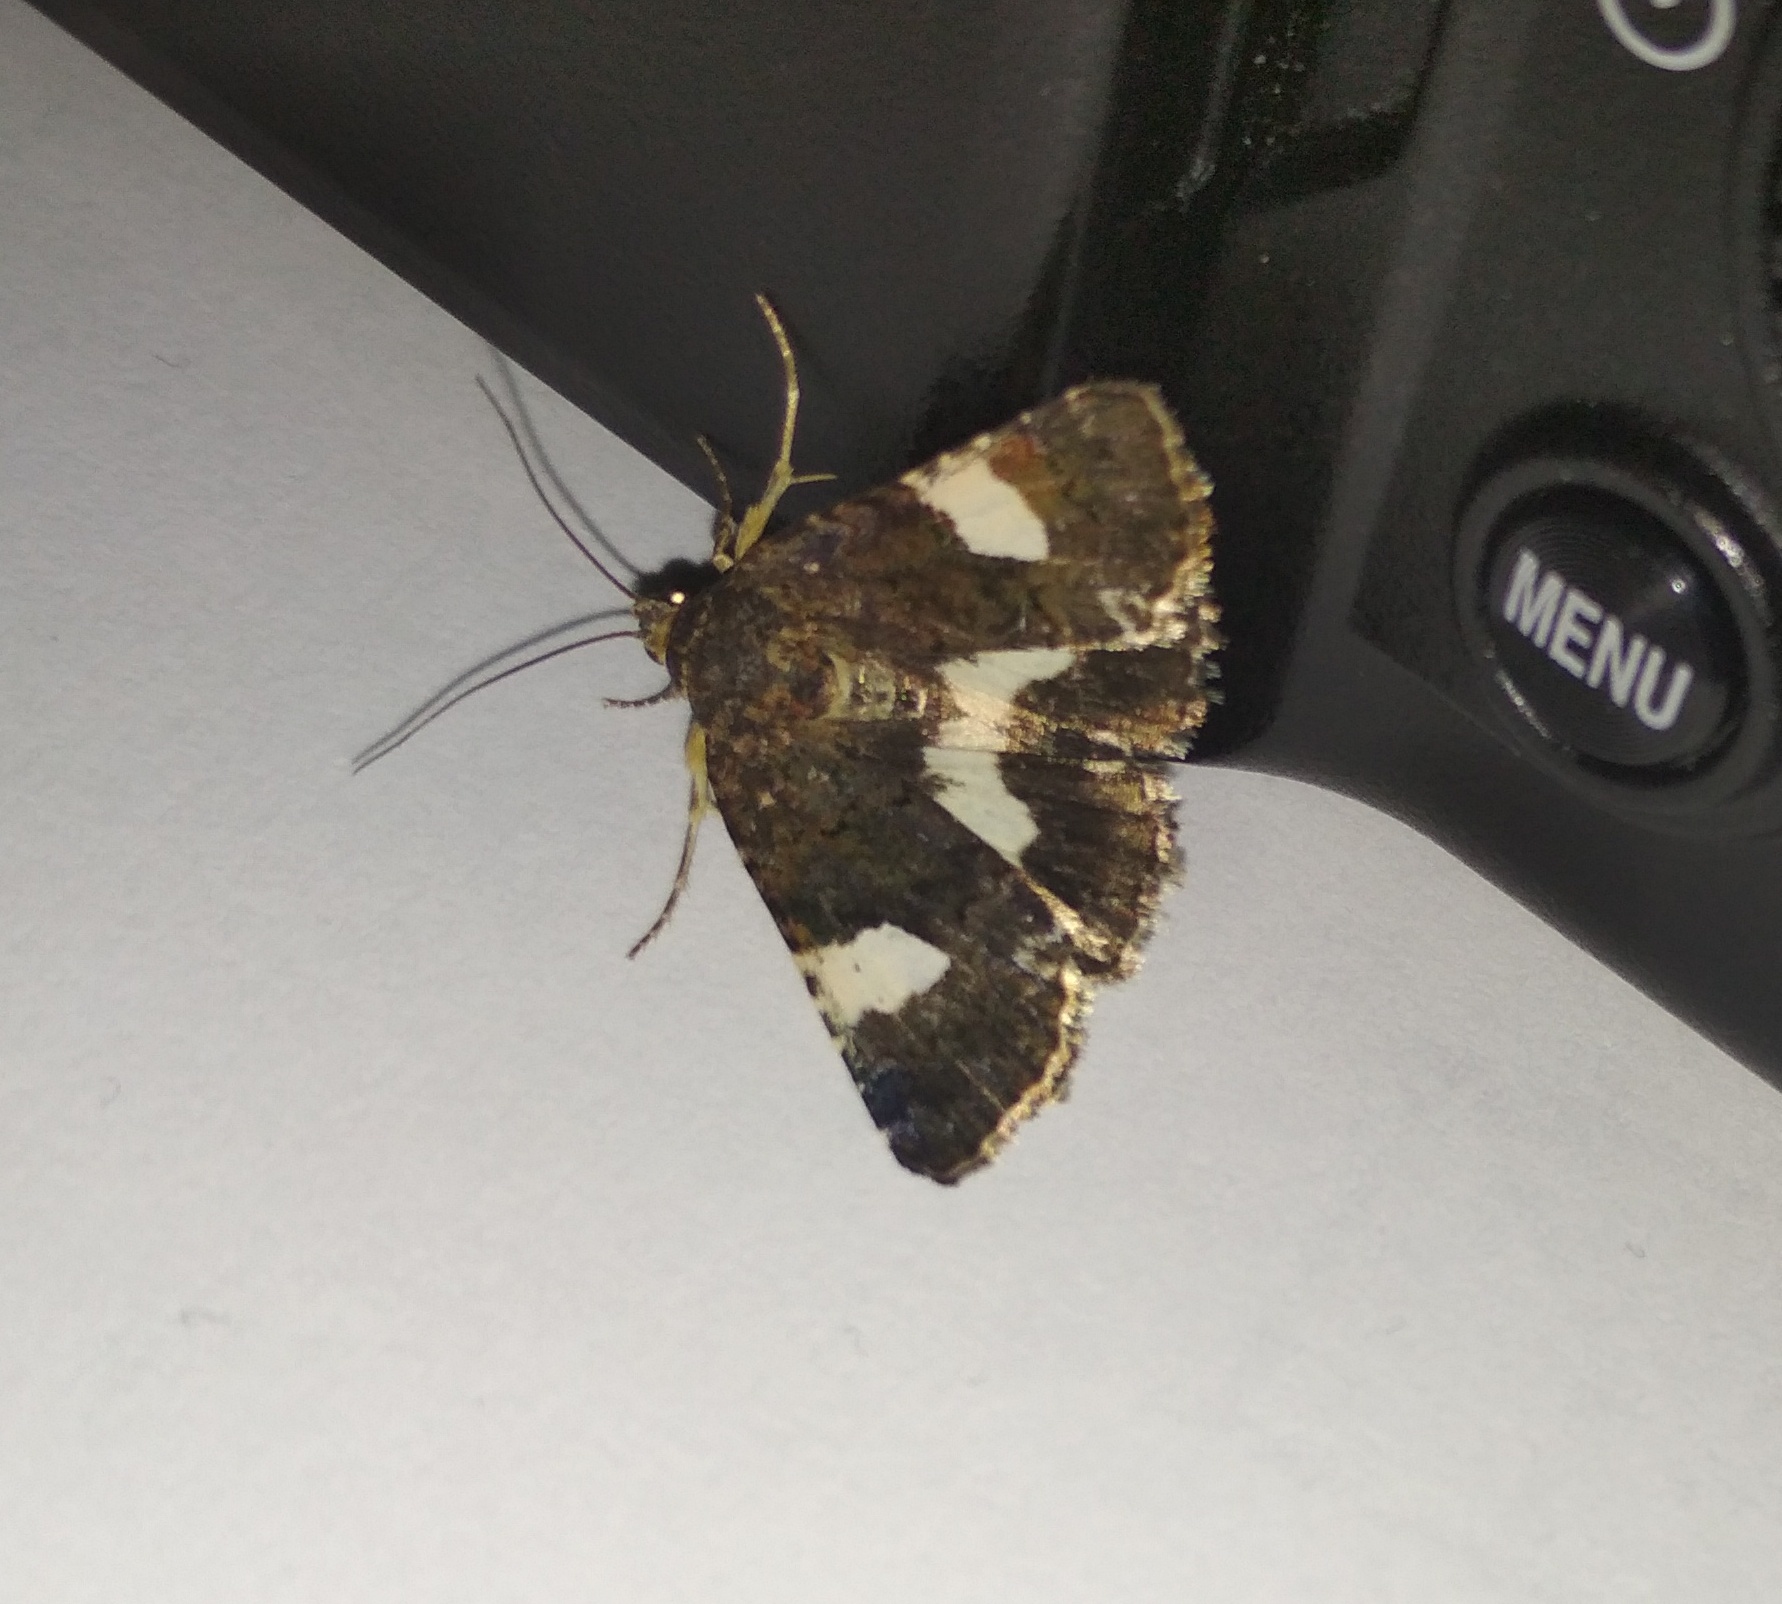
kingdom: Animalia
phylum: Arthropoda
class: Insecta
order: Lepidoptera
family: Erebidae
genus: Tyta
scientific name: Tyta luctuosa
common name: Four-spotted
